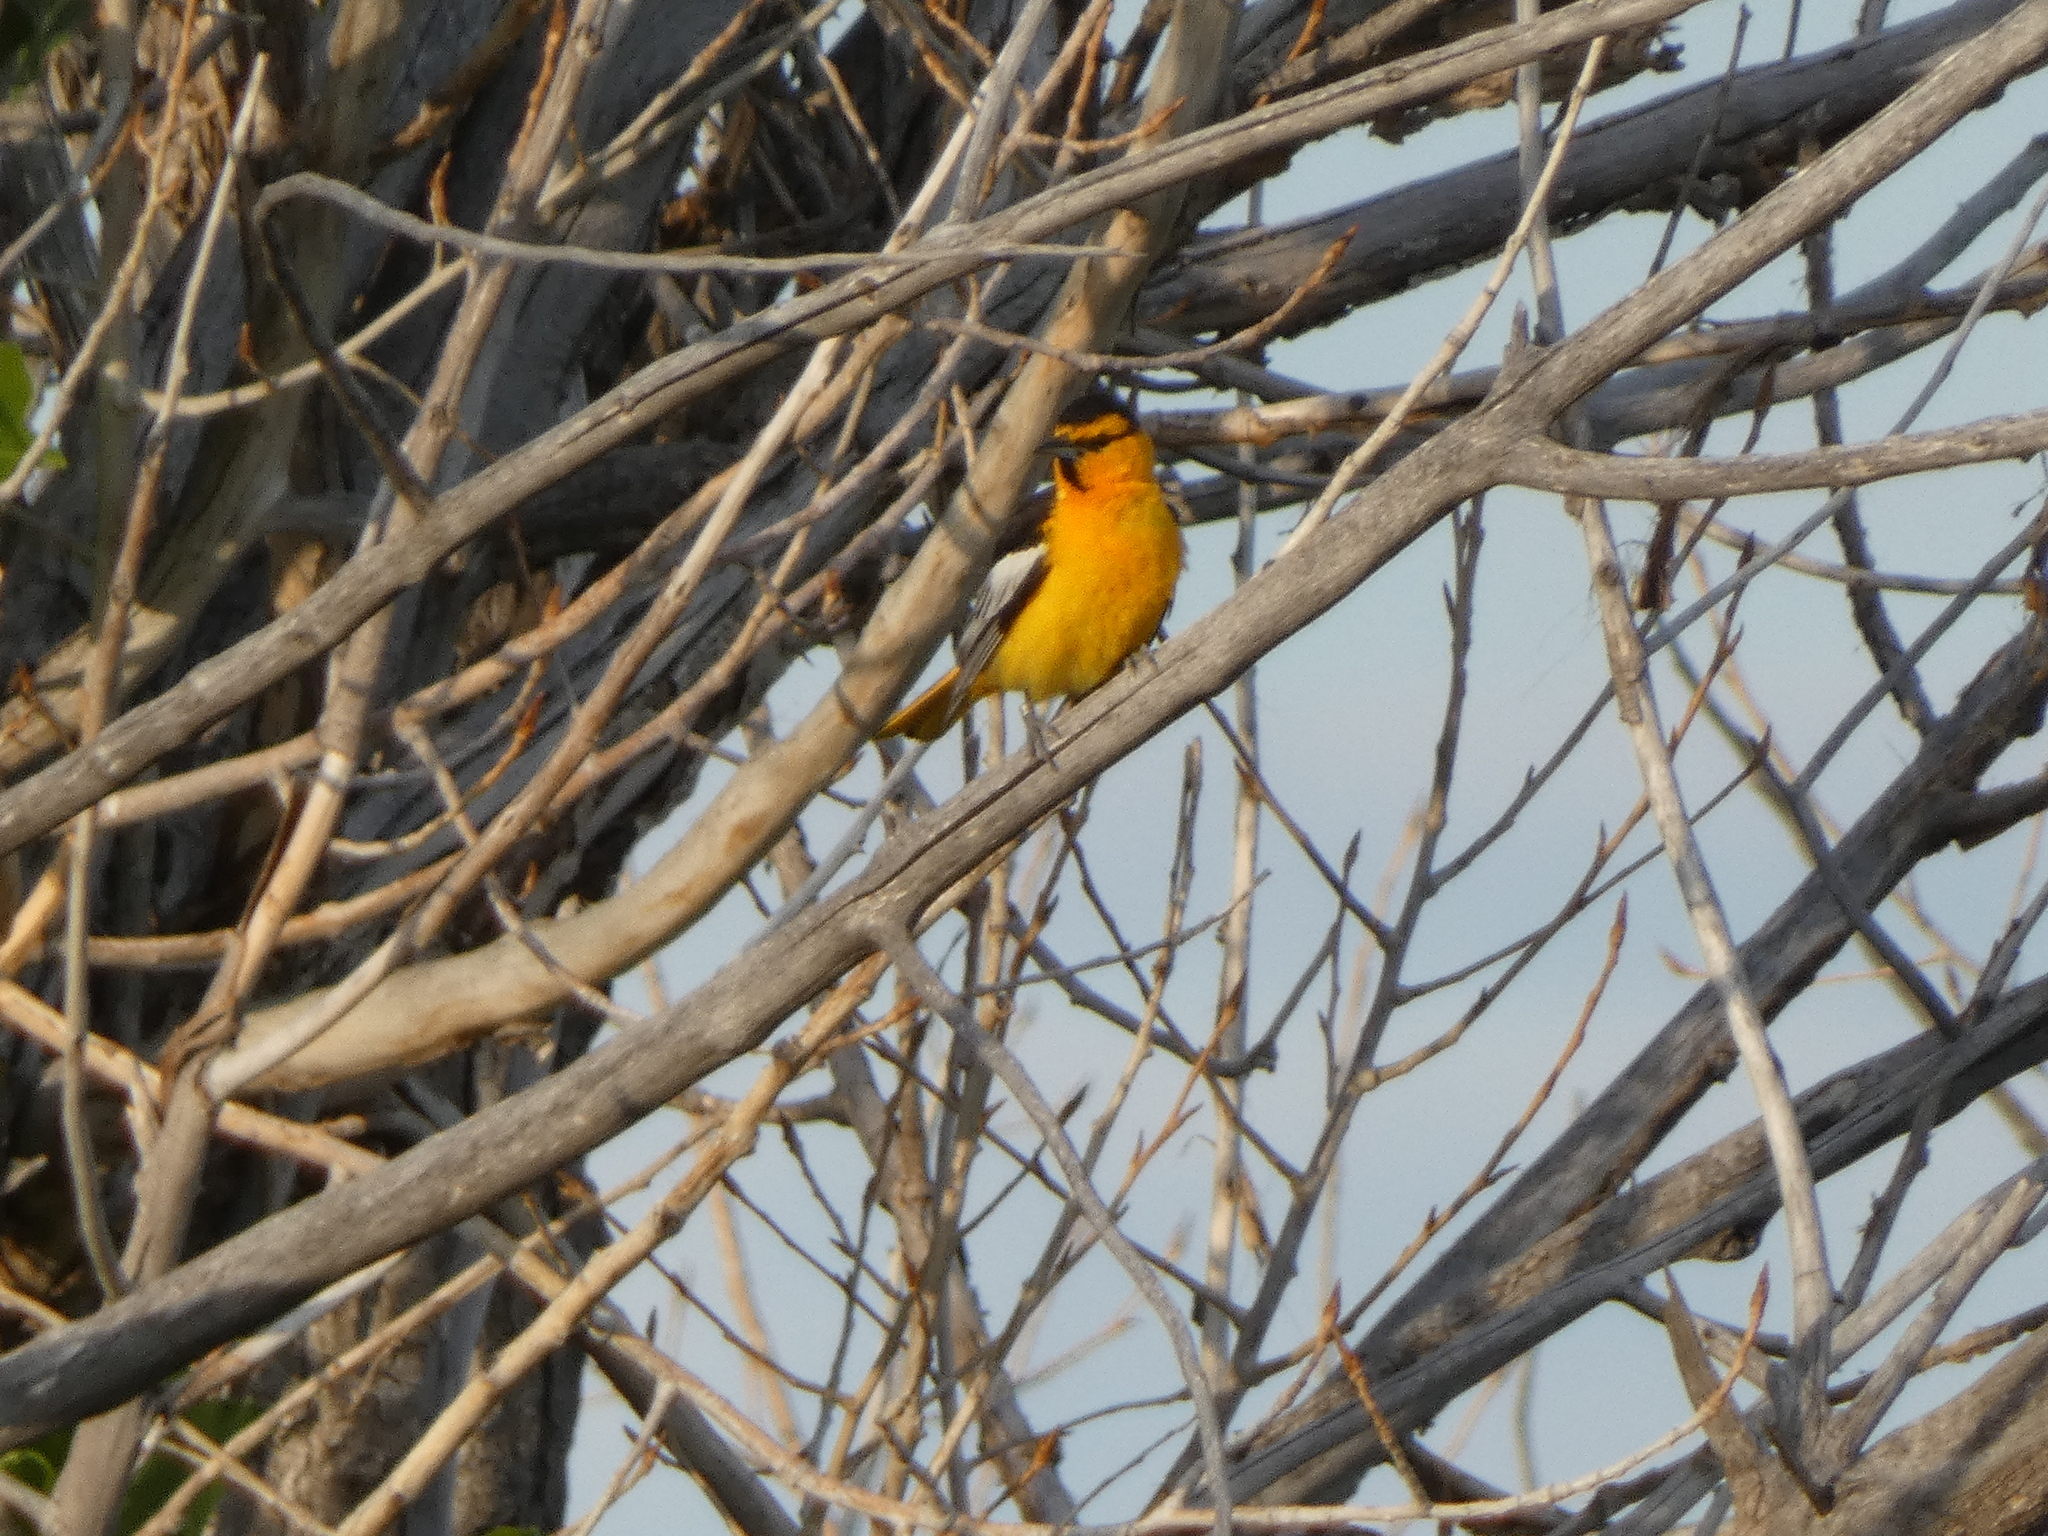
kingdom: Animalia
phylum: Chordata
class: Aves
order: Passeriformes
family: Icteridae
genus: Icterus
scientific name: Icterus bullockii
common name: Bullock's oriole
